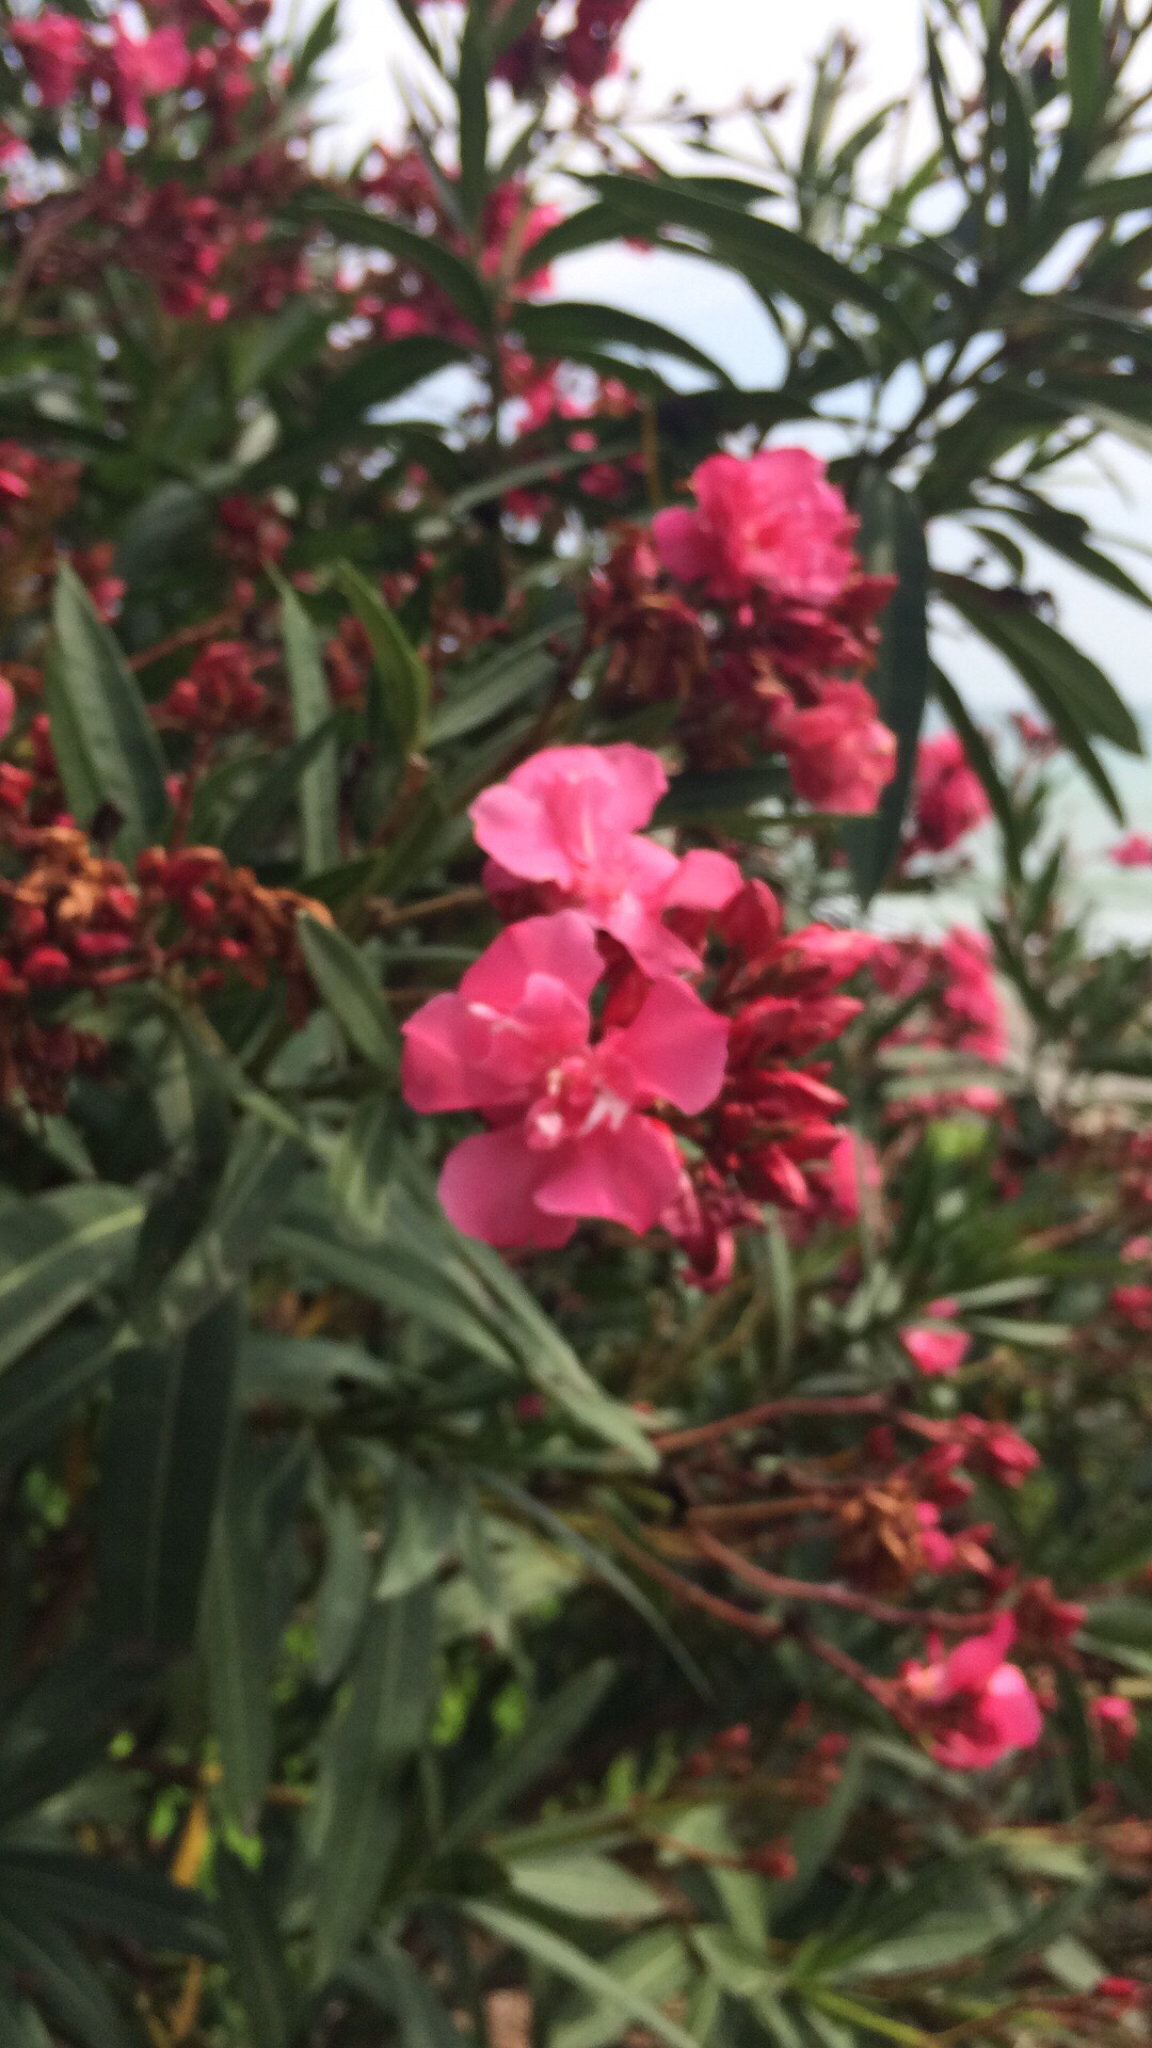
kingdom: Plantae
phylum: Tracheophyta
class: Magnoliopsida
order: Gentianales
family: Apocynaceae
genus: Nerium
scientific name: Nerium oleander
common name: Oleander
